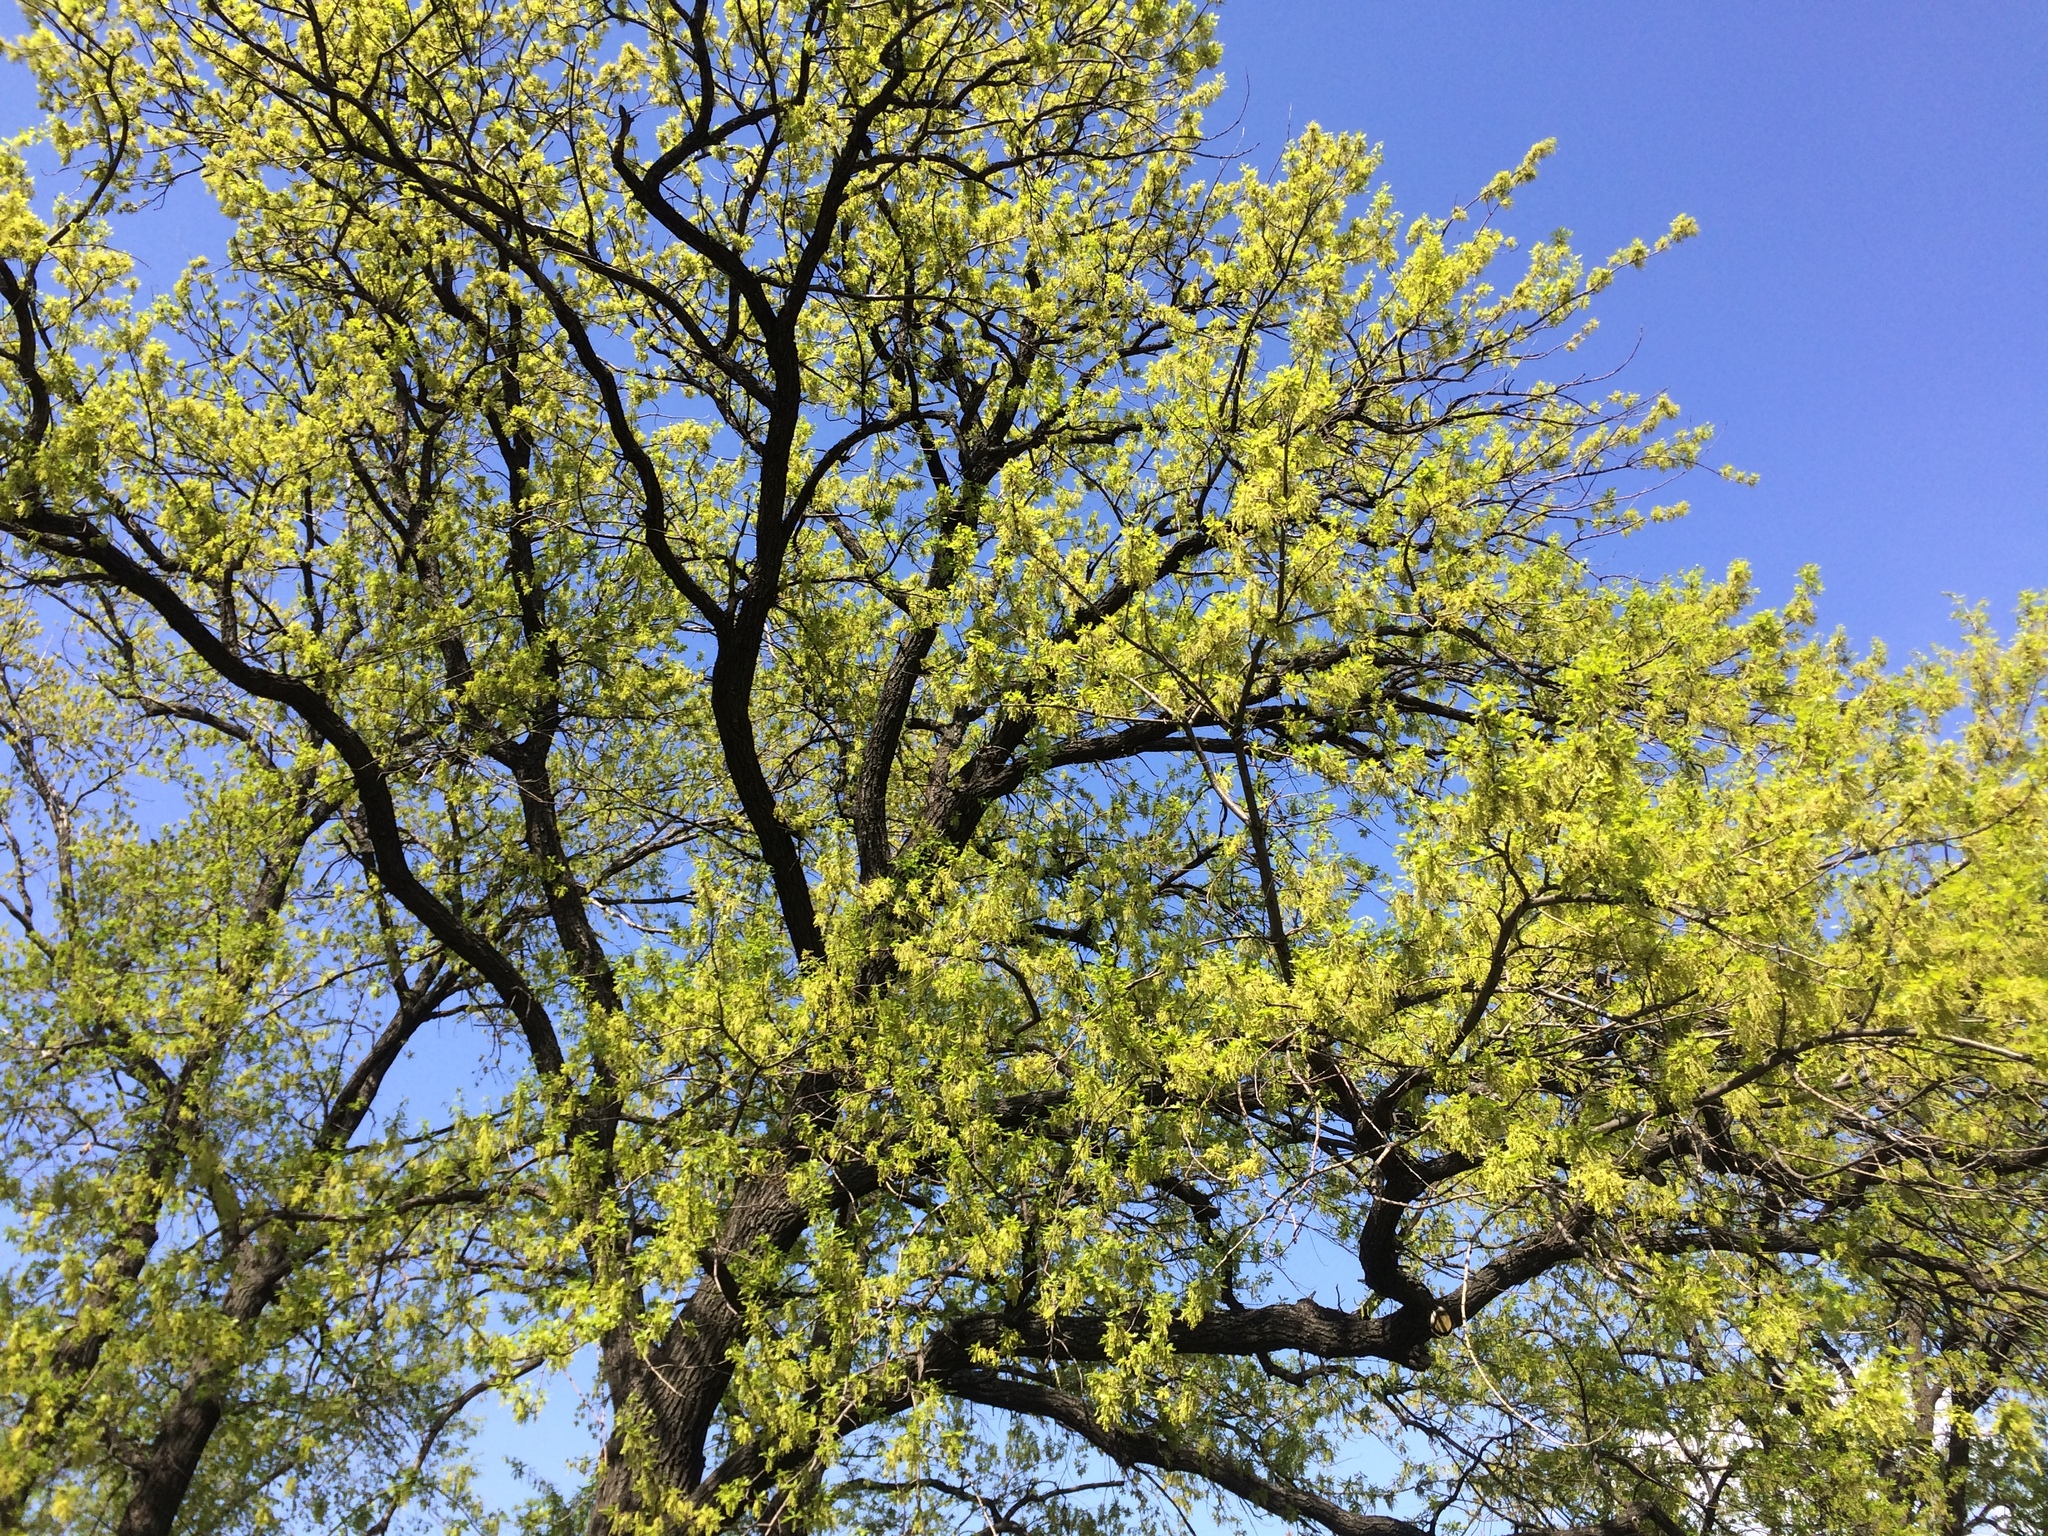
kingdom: Plantae
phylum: Tracheophyta
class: Magnoliopsida
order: Fagales
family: Fagaceae
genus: Quercus
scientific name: Quercus robur
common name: Pedunculate oak
